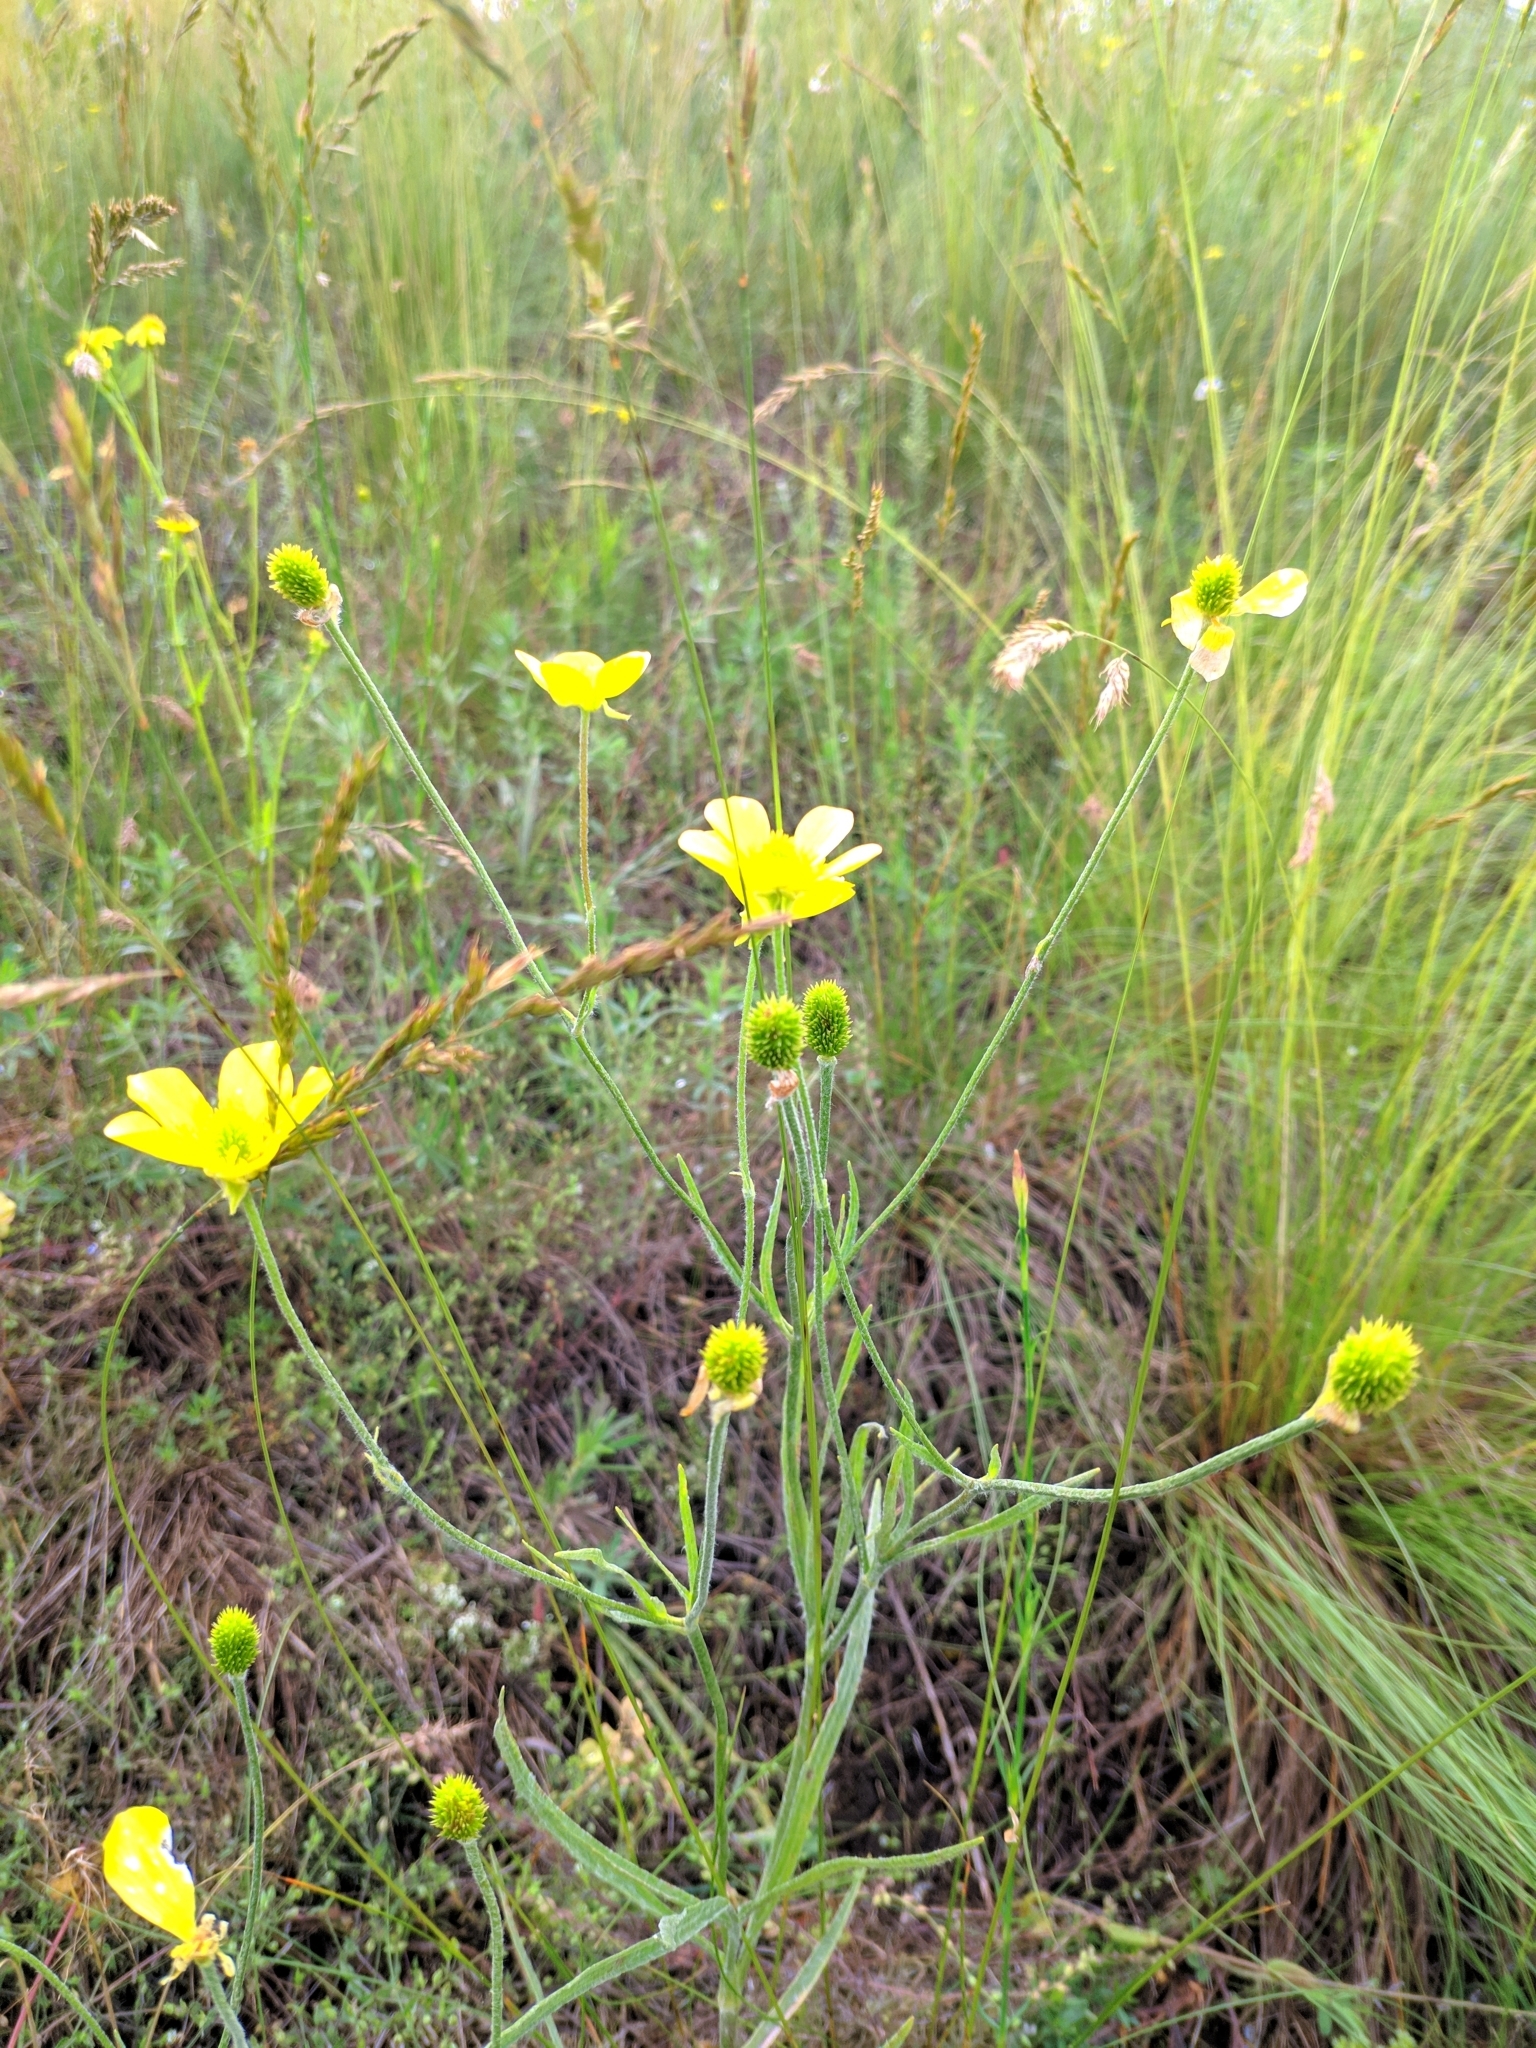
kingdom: Plantae
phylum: Tracheophyta
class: Magnoliopsida
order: Ranunculales
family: Ranunculaceae
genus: Ranunculus
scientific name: Ranunculus illyricus
